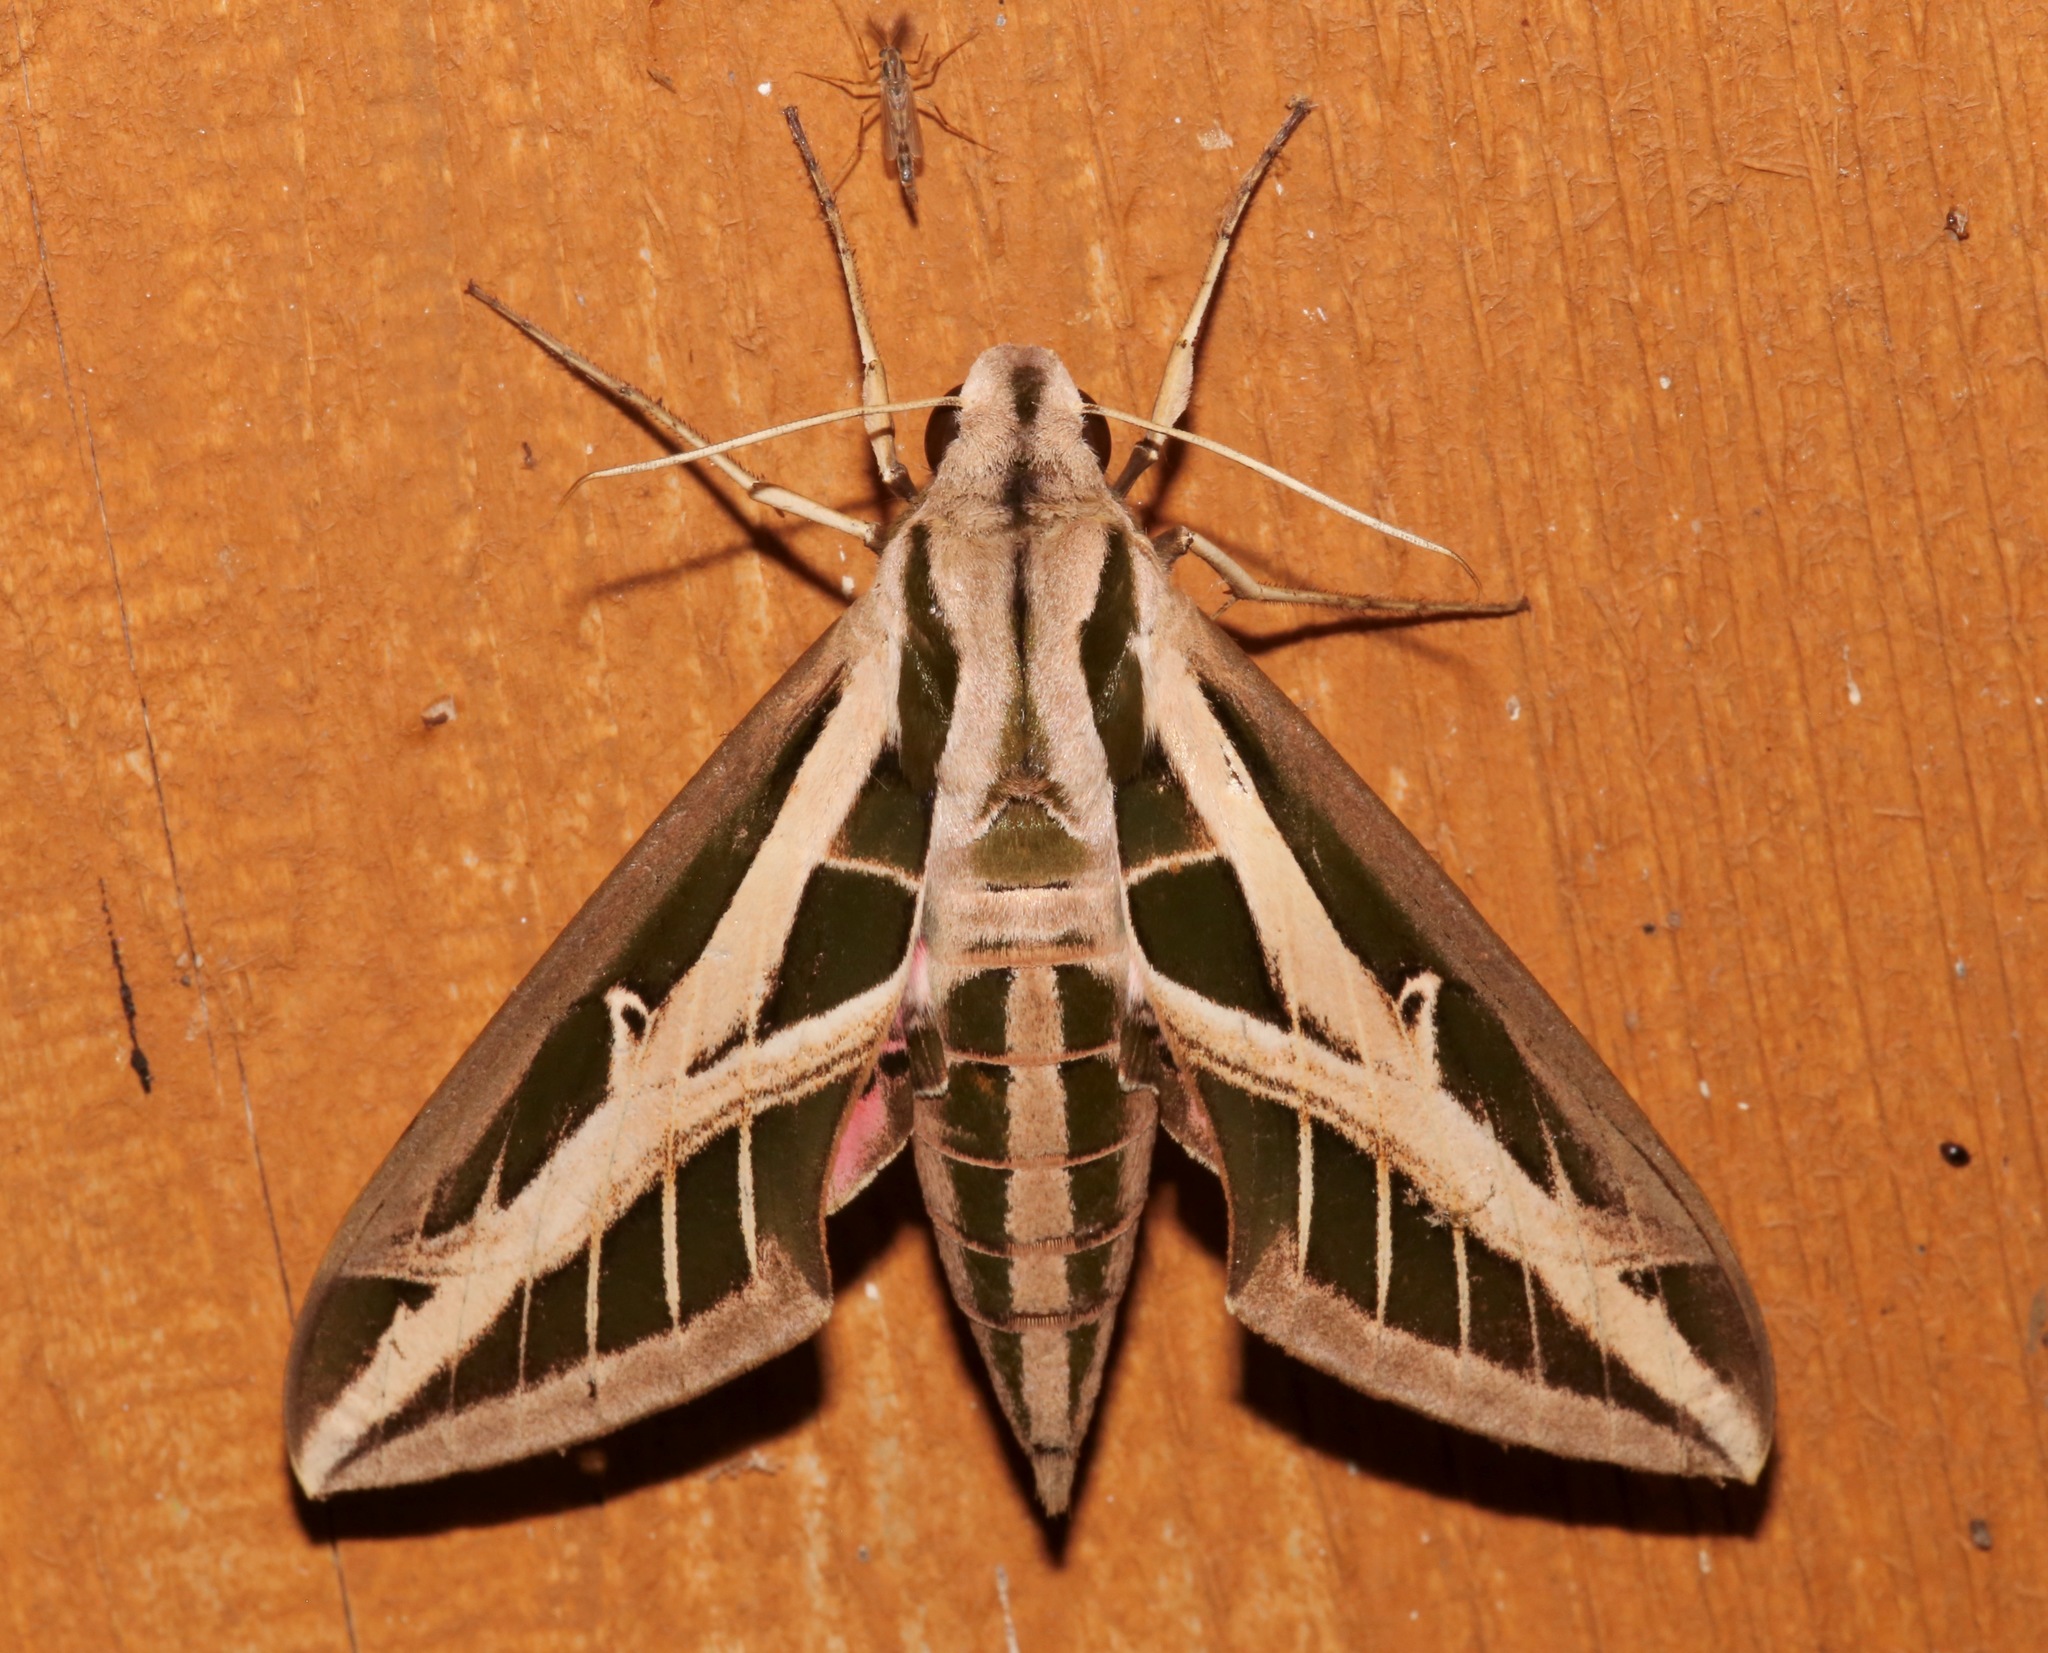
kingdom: Animalia
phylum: Arthropoda
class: Insecta
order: Lepidoptera
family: Sphingidae
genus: Eumorpha
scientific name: Eumorpha fasciatus
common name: Banded sphinx
